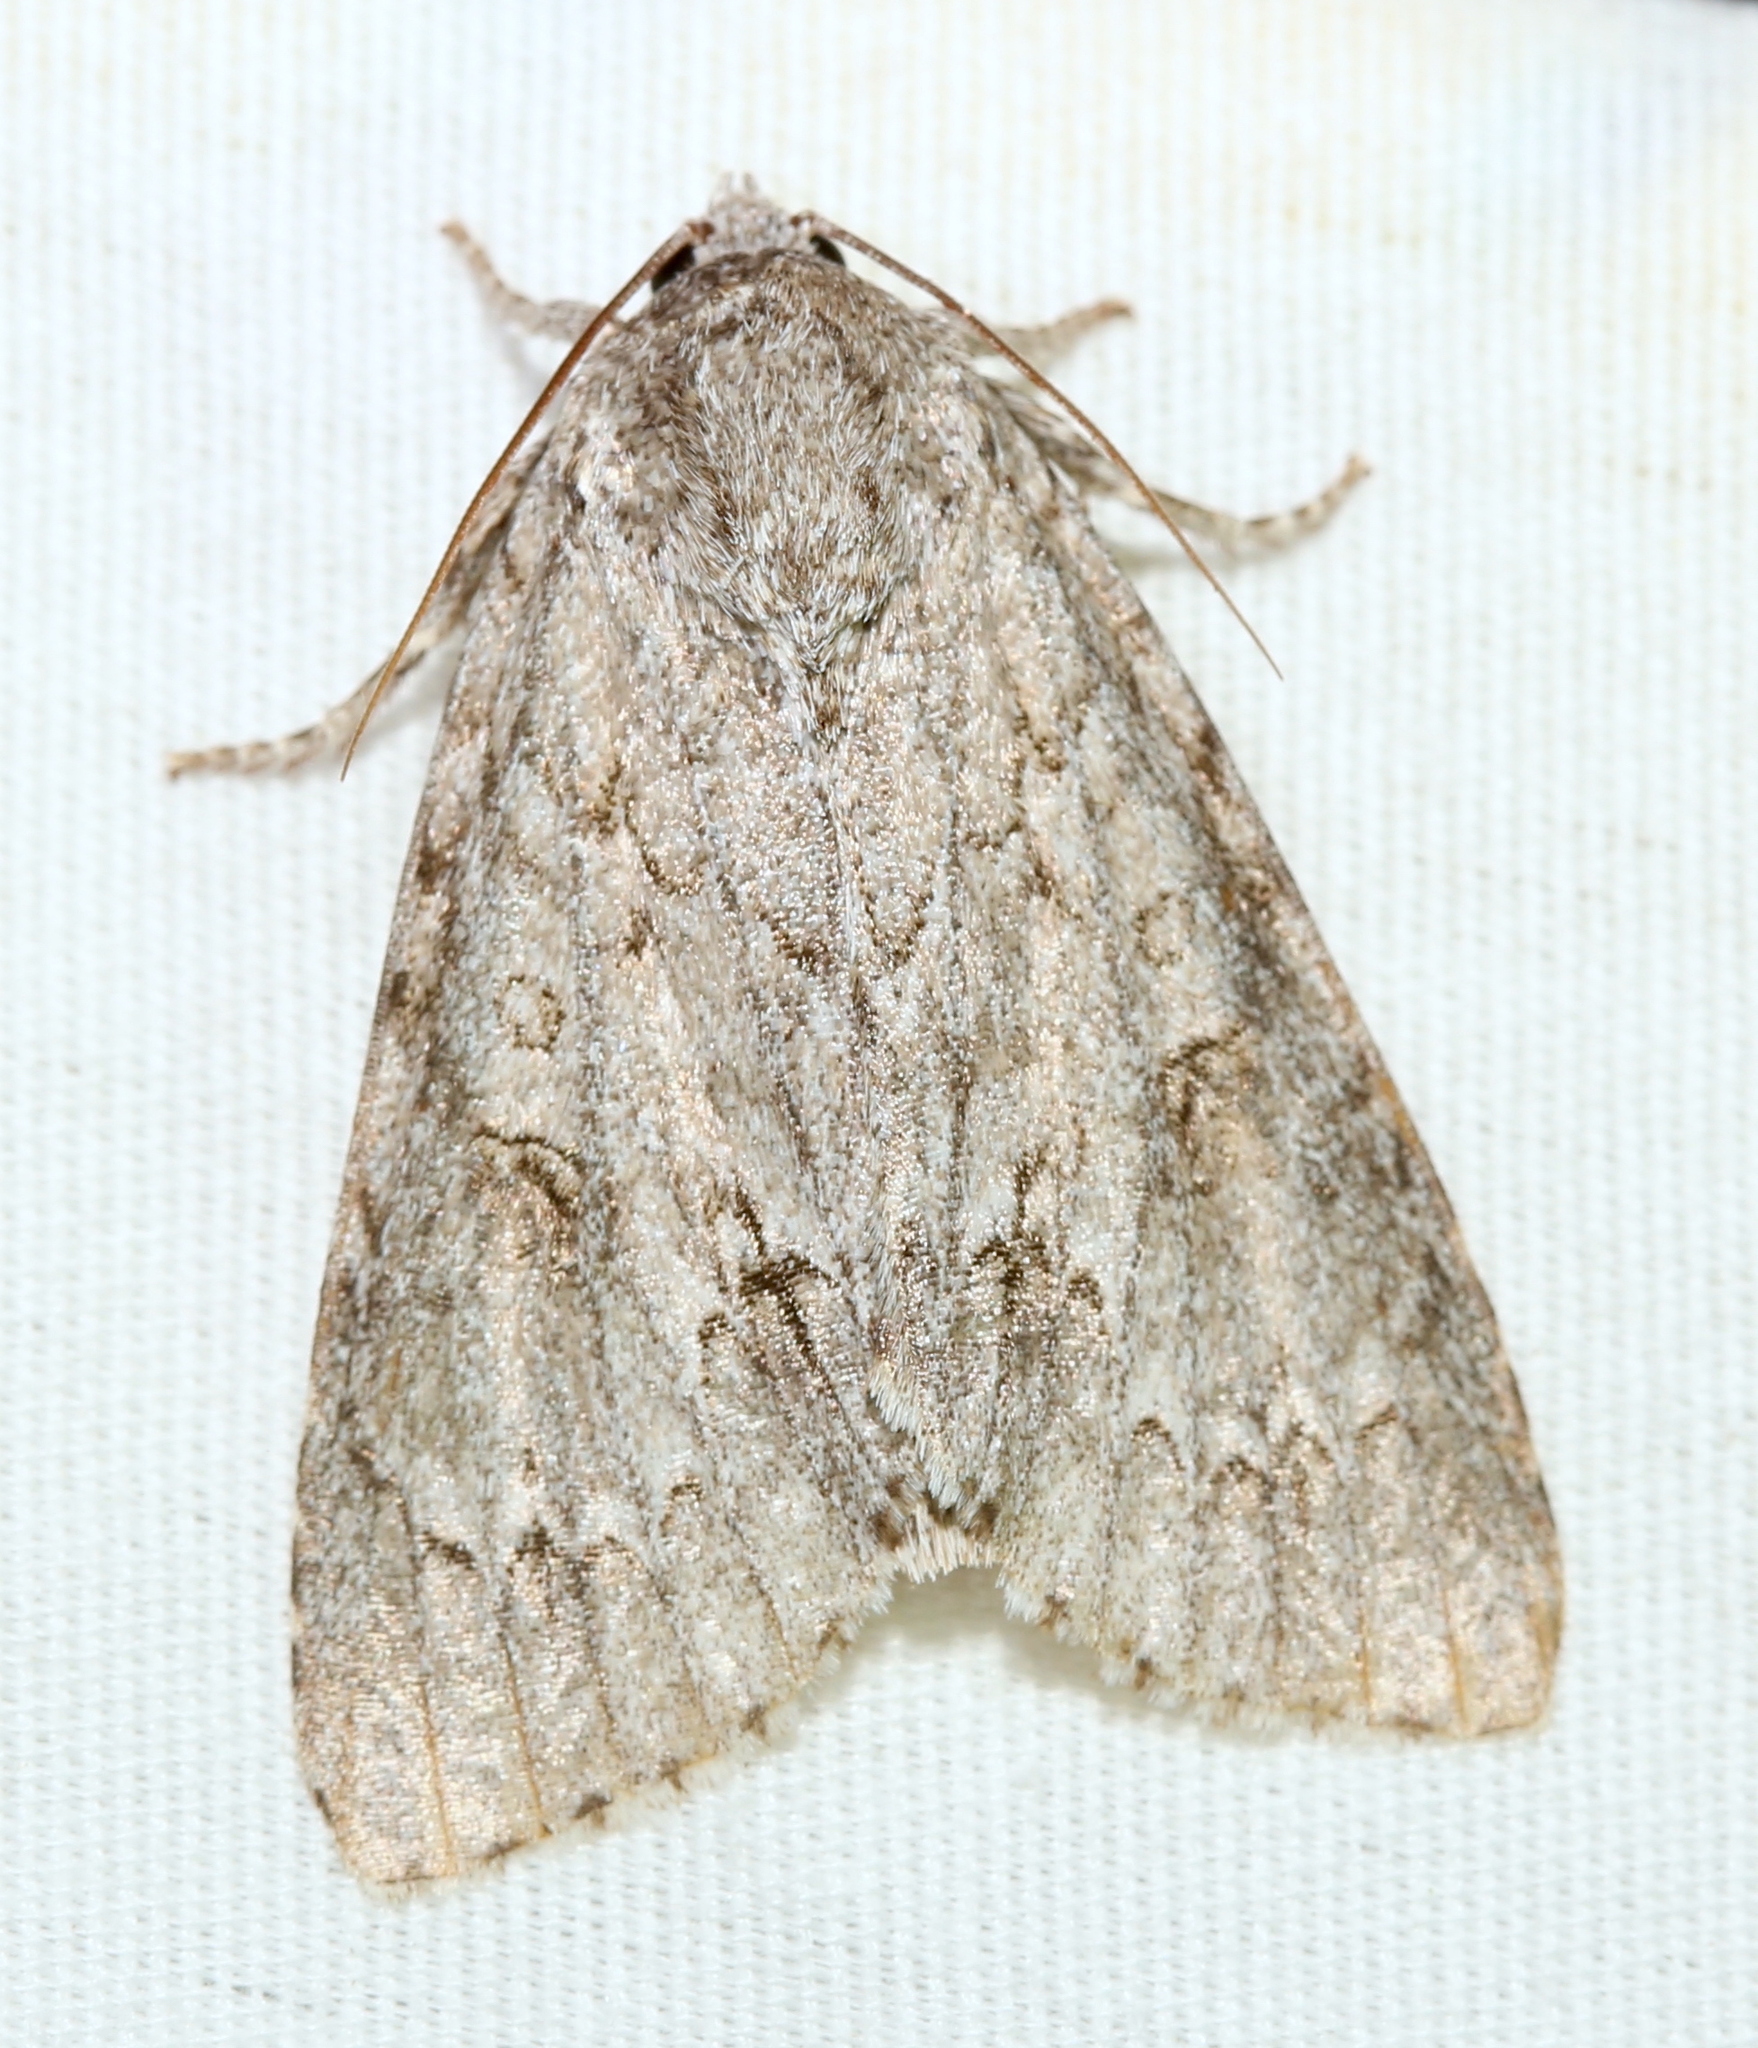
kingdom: Animalia
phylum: Arthropoda
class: Insecta
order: Lepidoptera
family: Noctuidae
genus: Acronicta
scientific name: Acronicta americana
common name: American dagger
